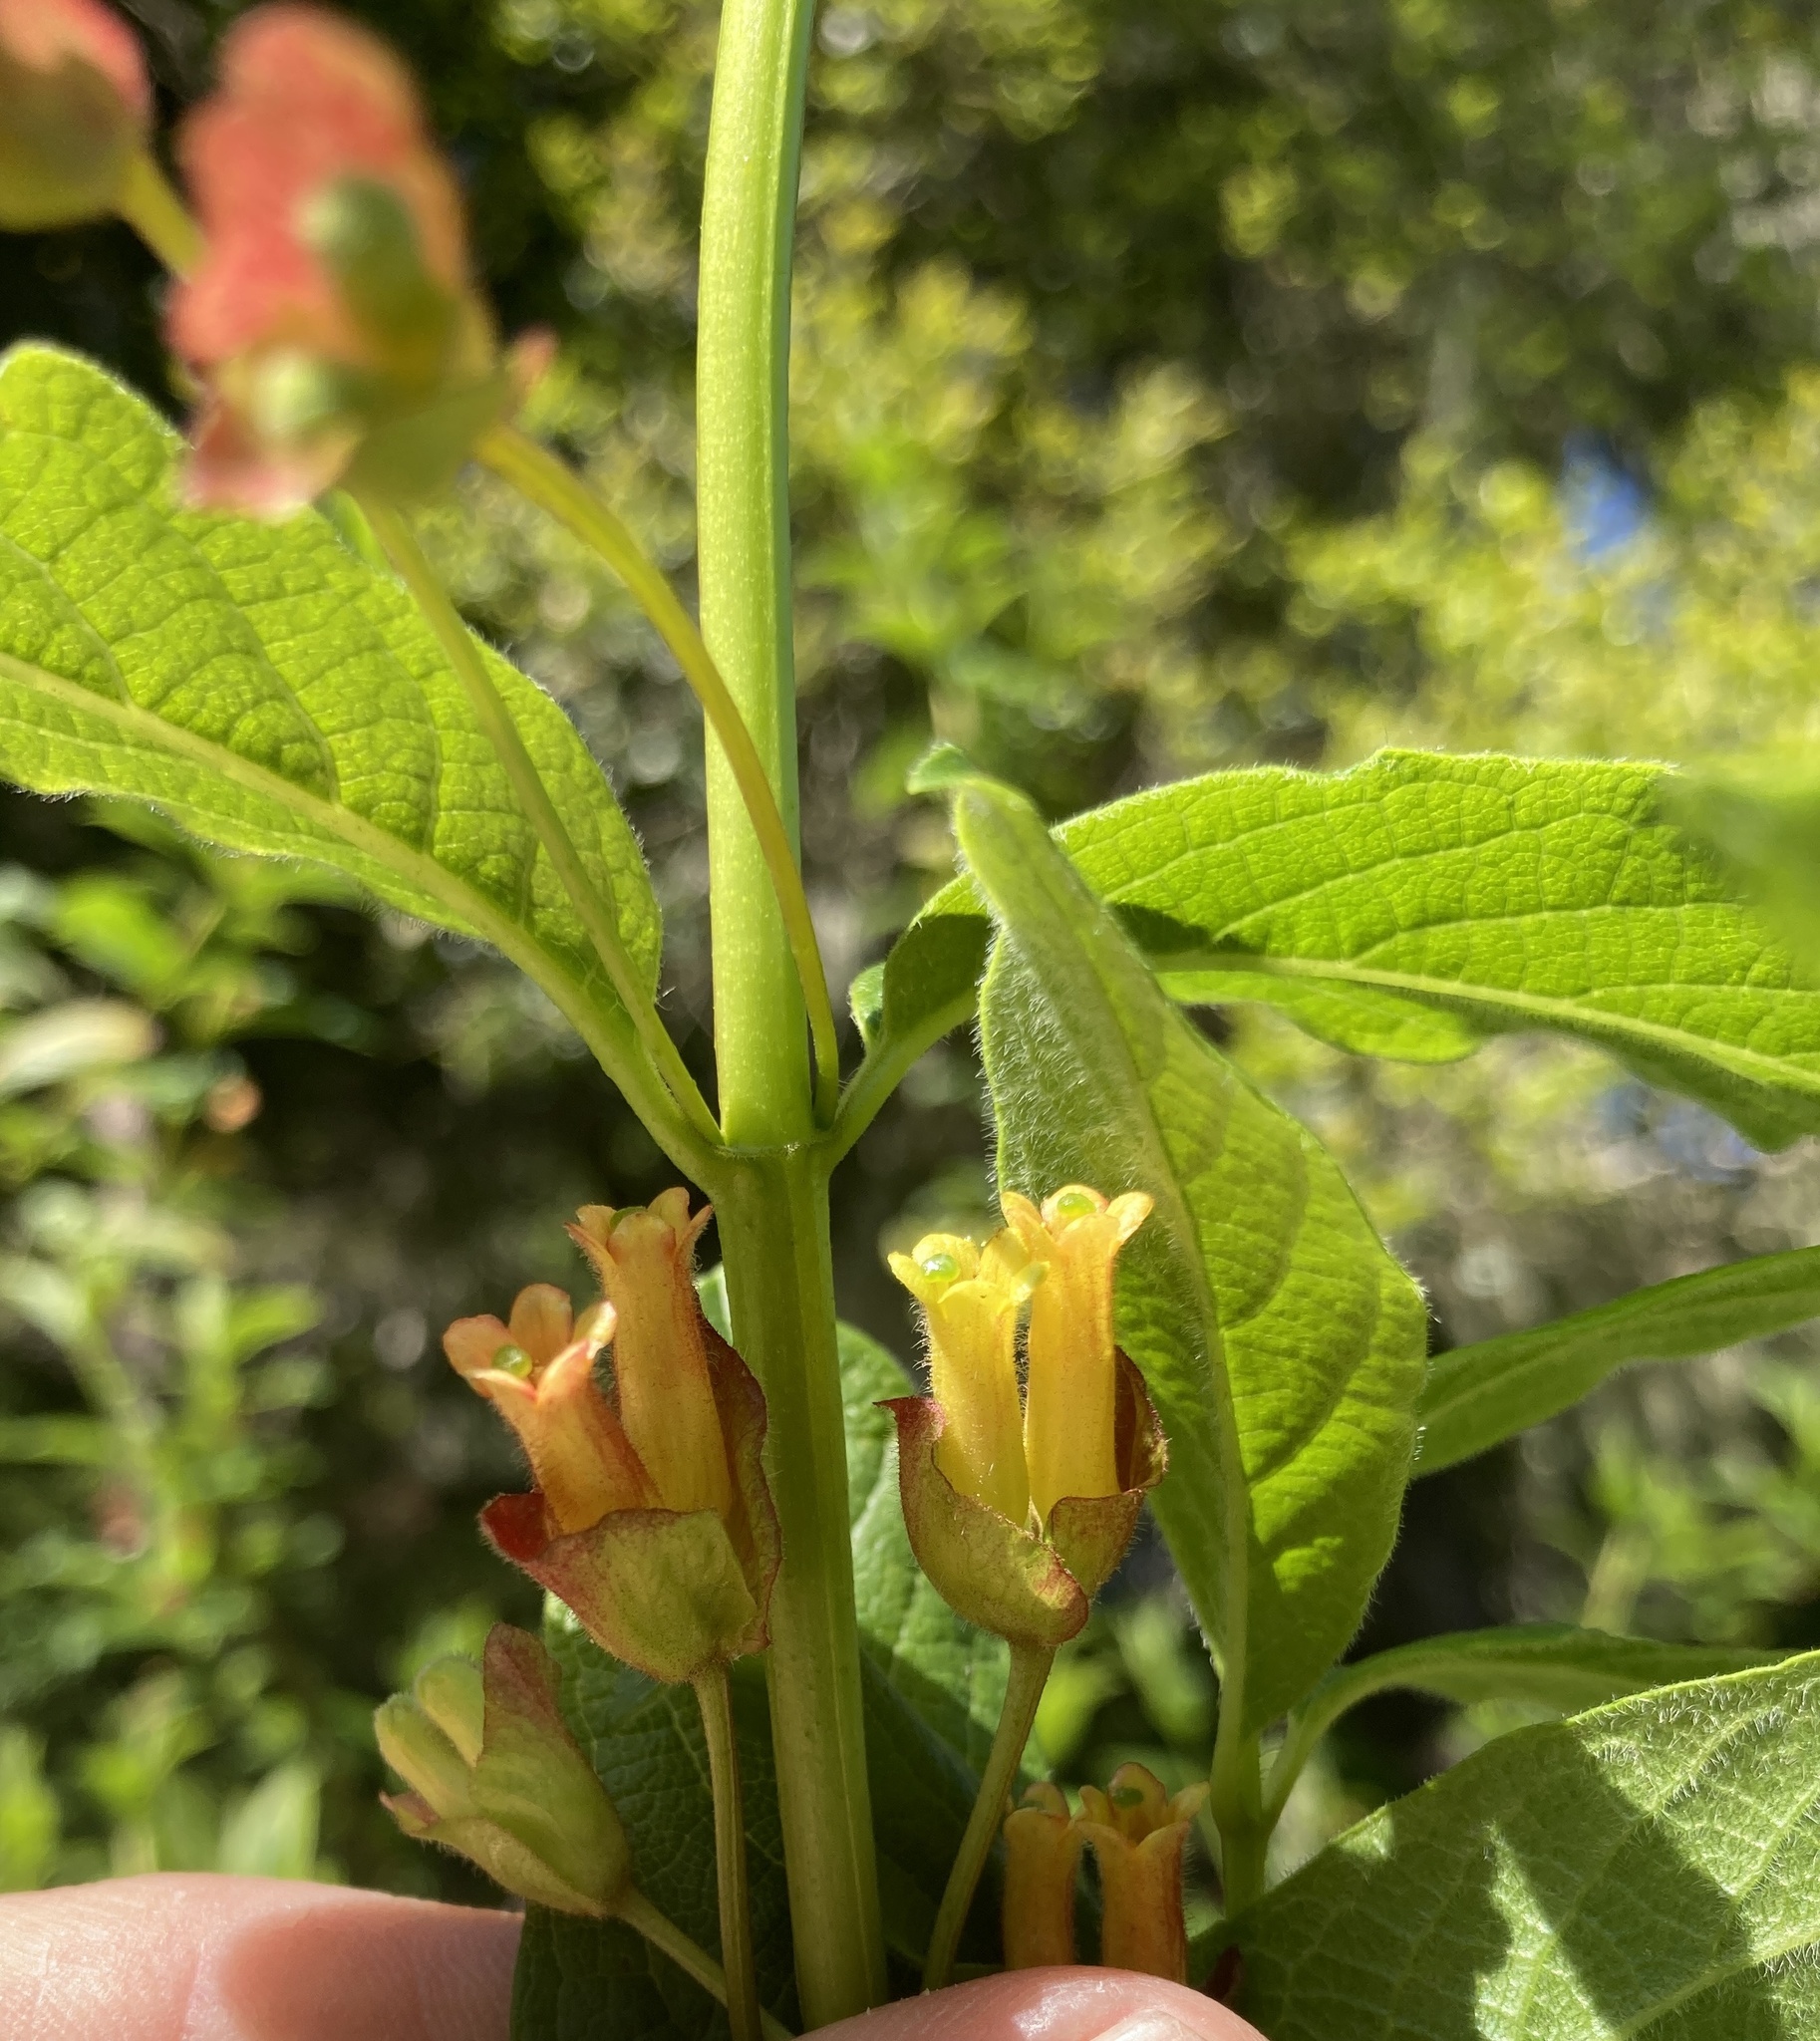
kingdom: Plantae
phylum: Tracheophyta
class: Magnoliopsida
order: Dipsacales
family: Caprifoliaceae
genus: Lonicera
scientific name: Lonicera involucrata
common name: Californian honeysuckle
